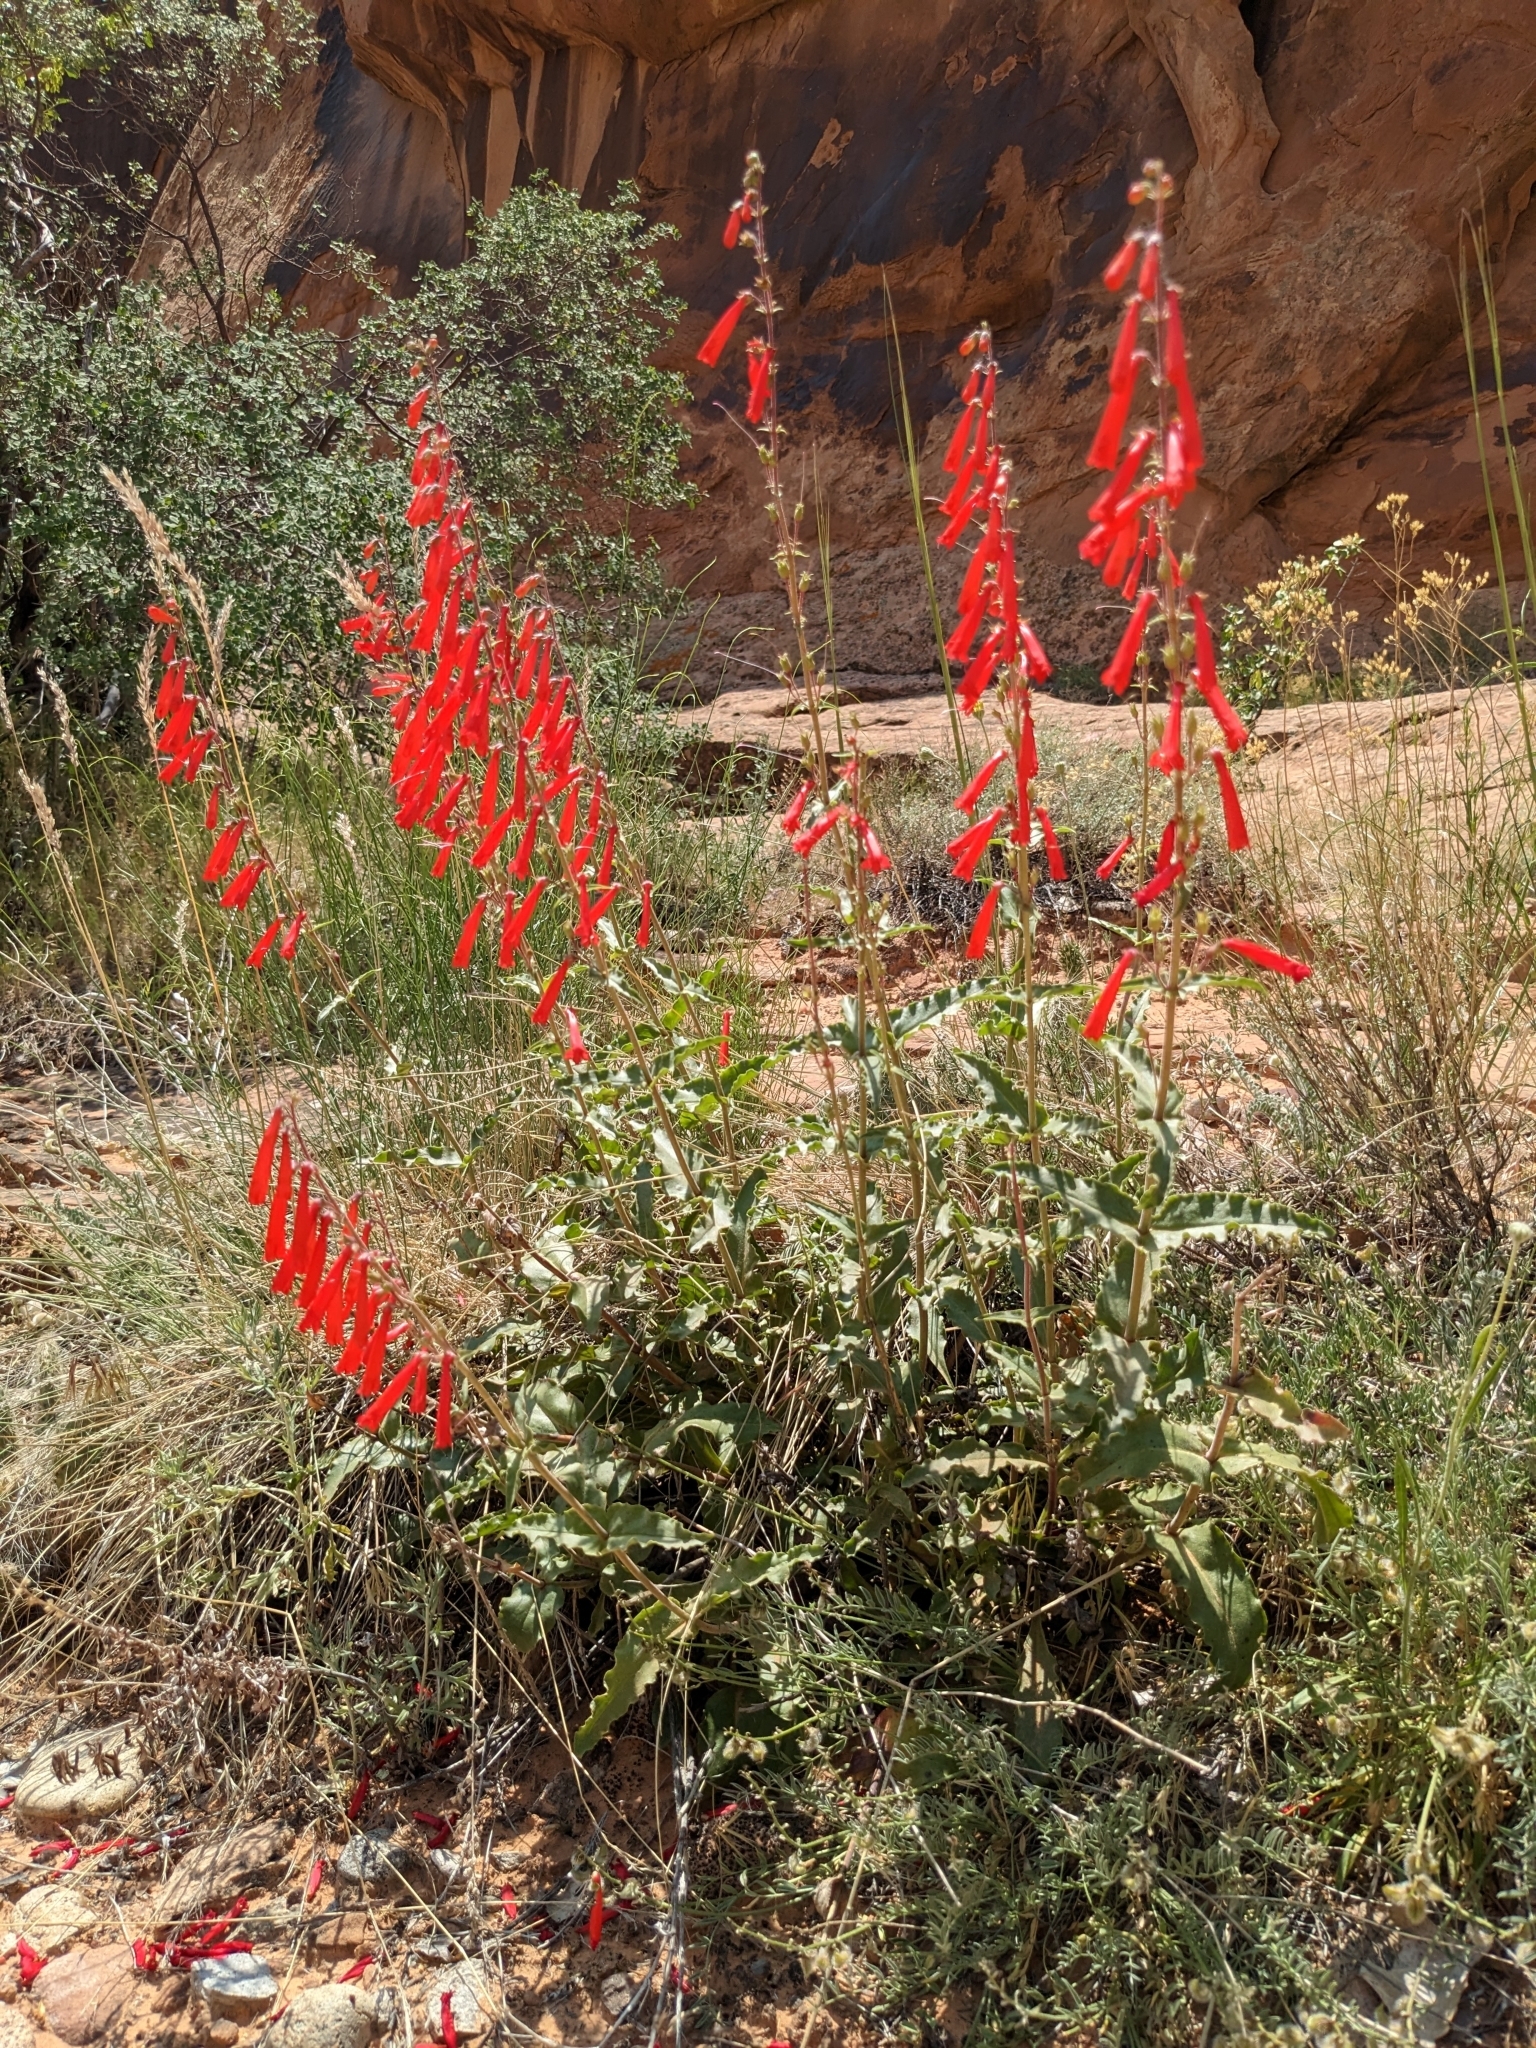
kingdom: Plantae
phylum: Tracheophyta
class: Magnoliopsida
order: Lamiales
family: Plantaginaceae
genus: Penstemon
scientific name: Penstemon eatonii
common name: Eaton's penstemon
